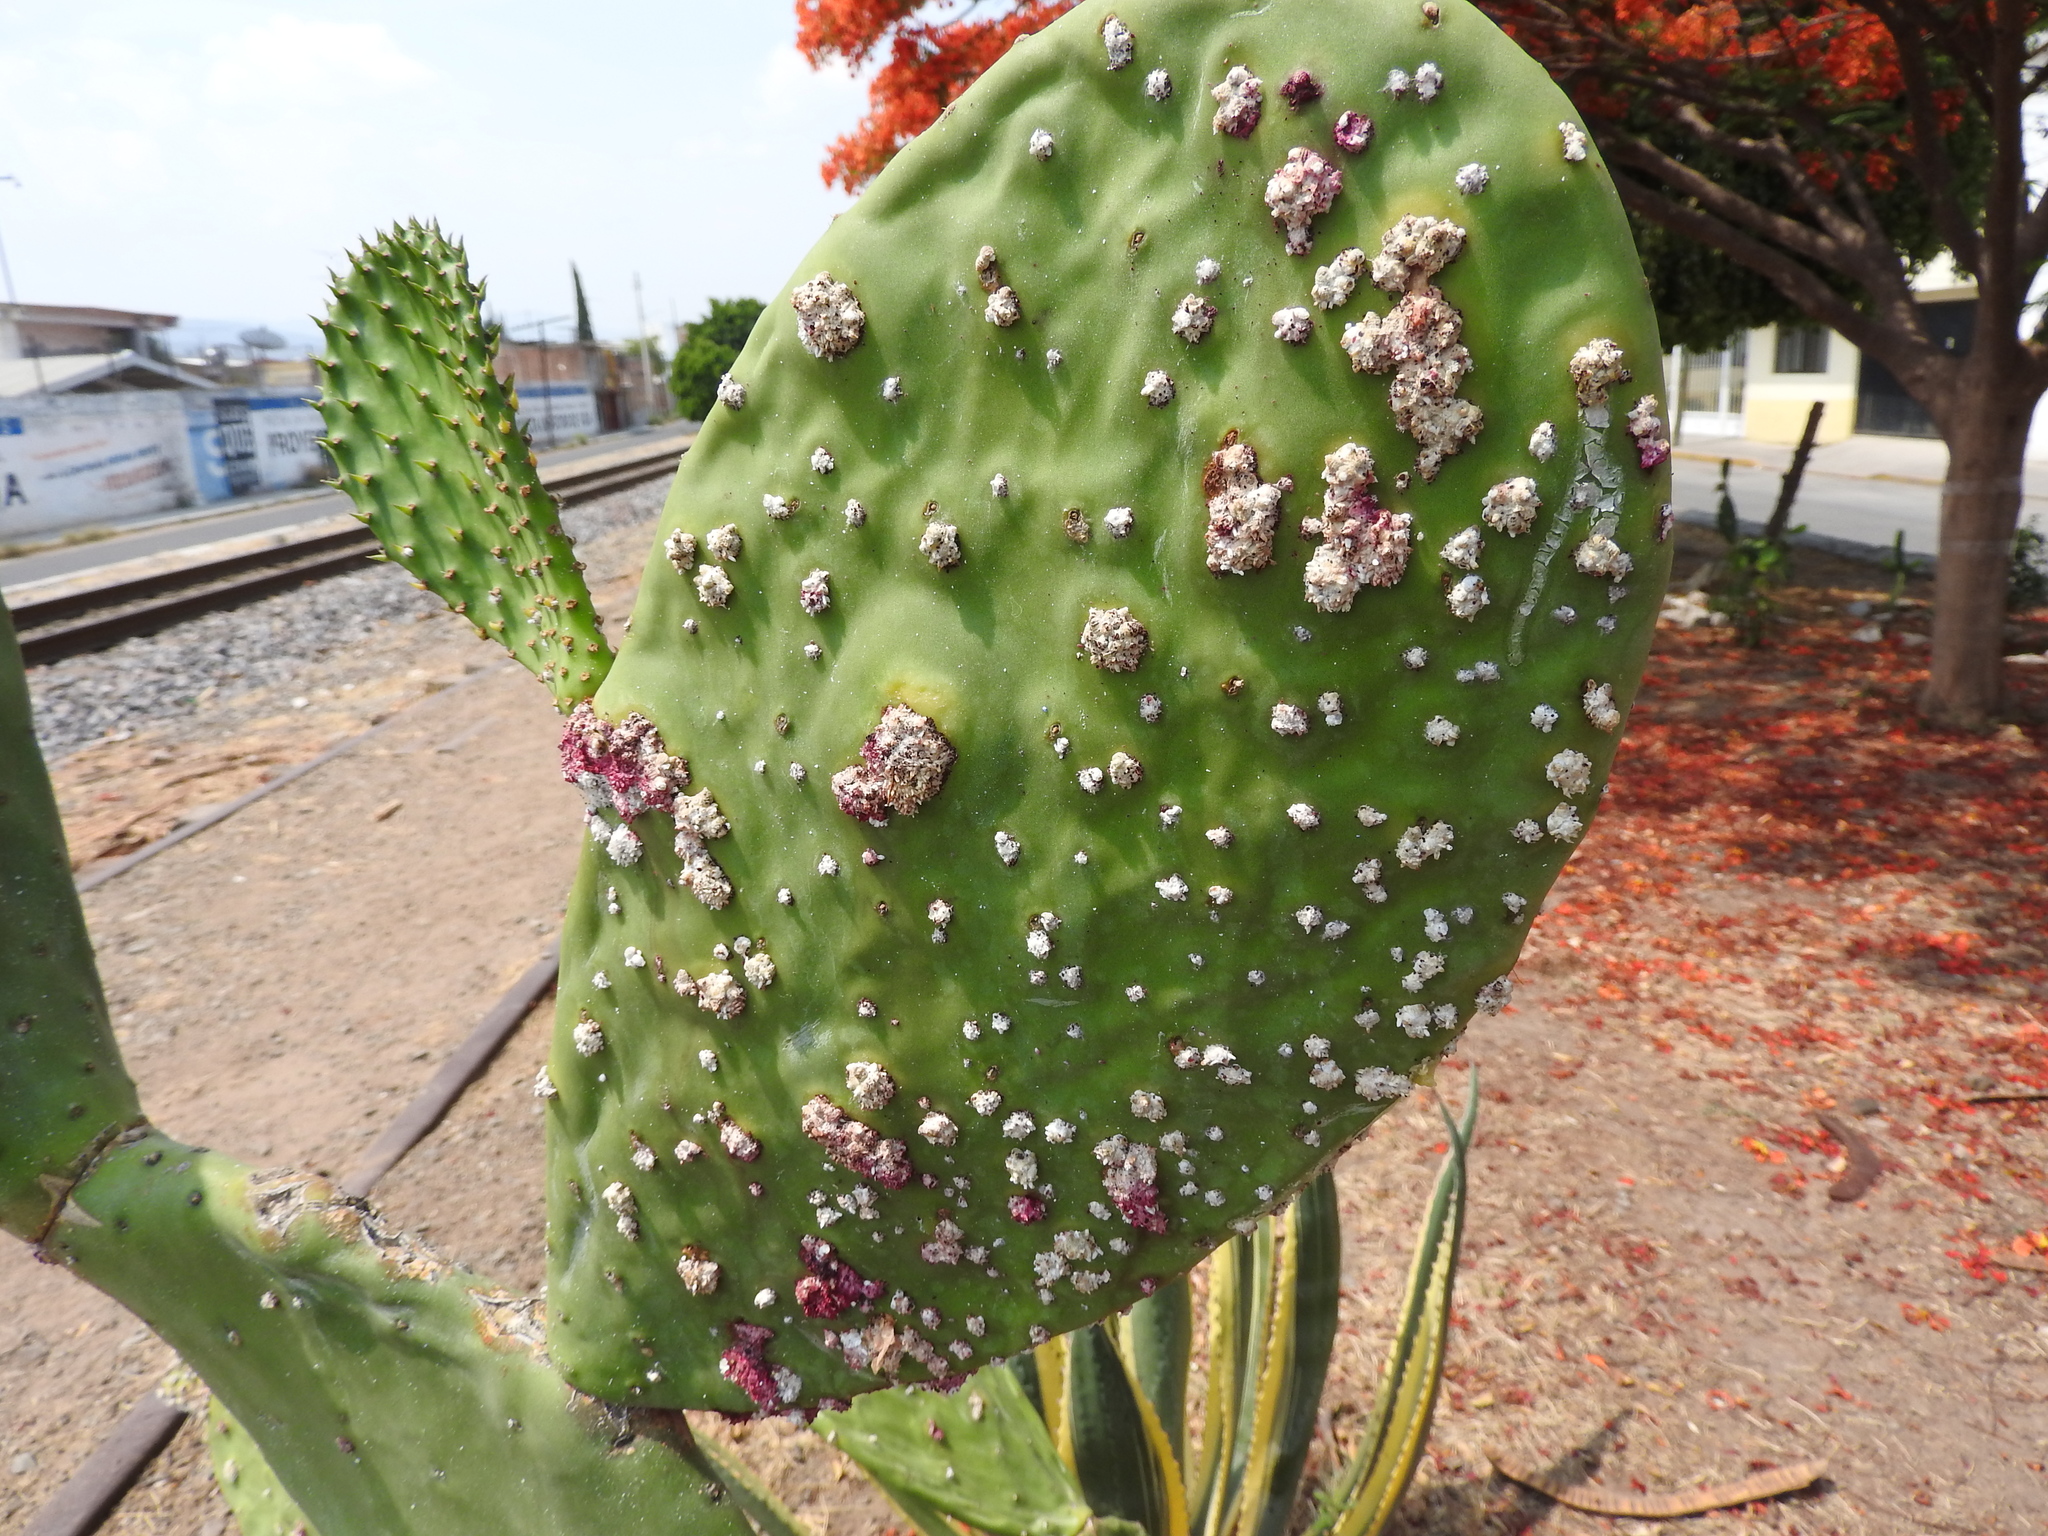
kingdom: Animalia
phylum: Arthropoda
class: Insecta
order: Hemiptera
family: Dactylopiidae
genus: Dactylopius
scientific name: Dactylopius coccus
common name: Cochineal
